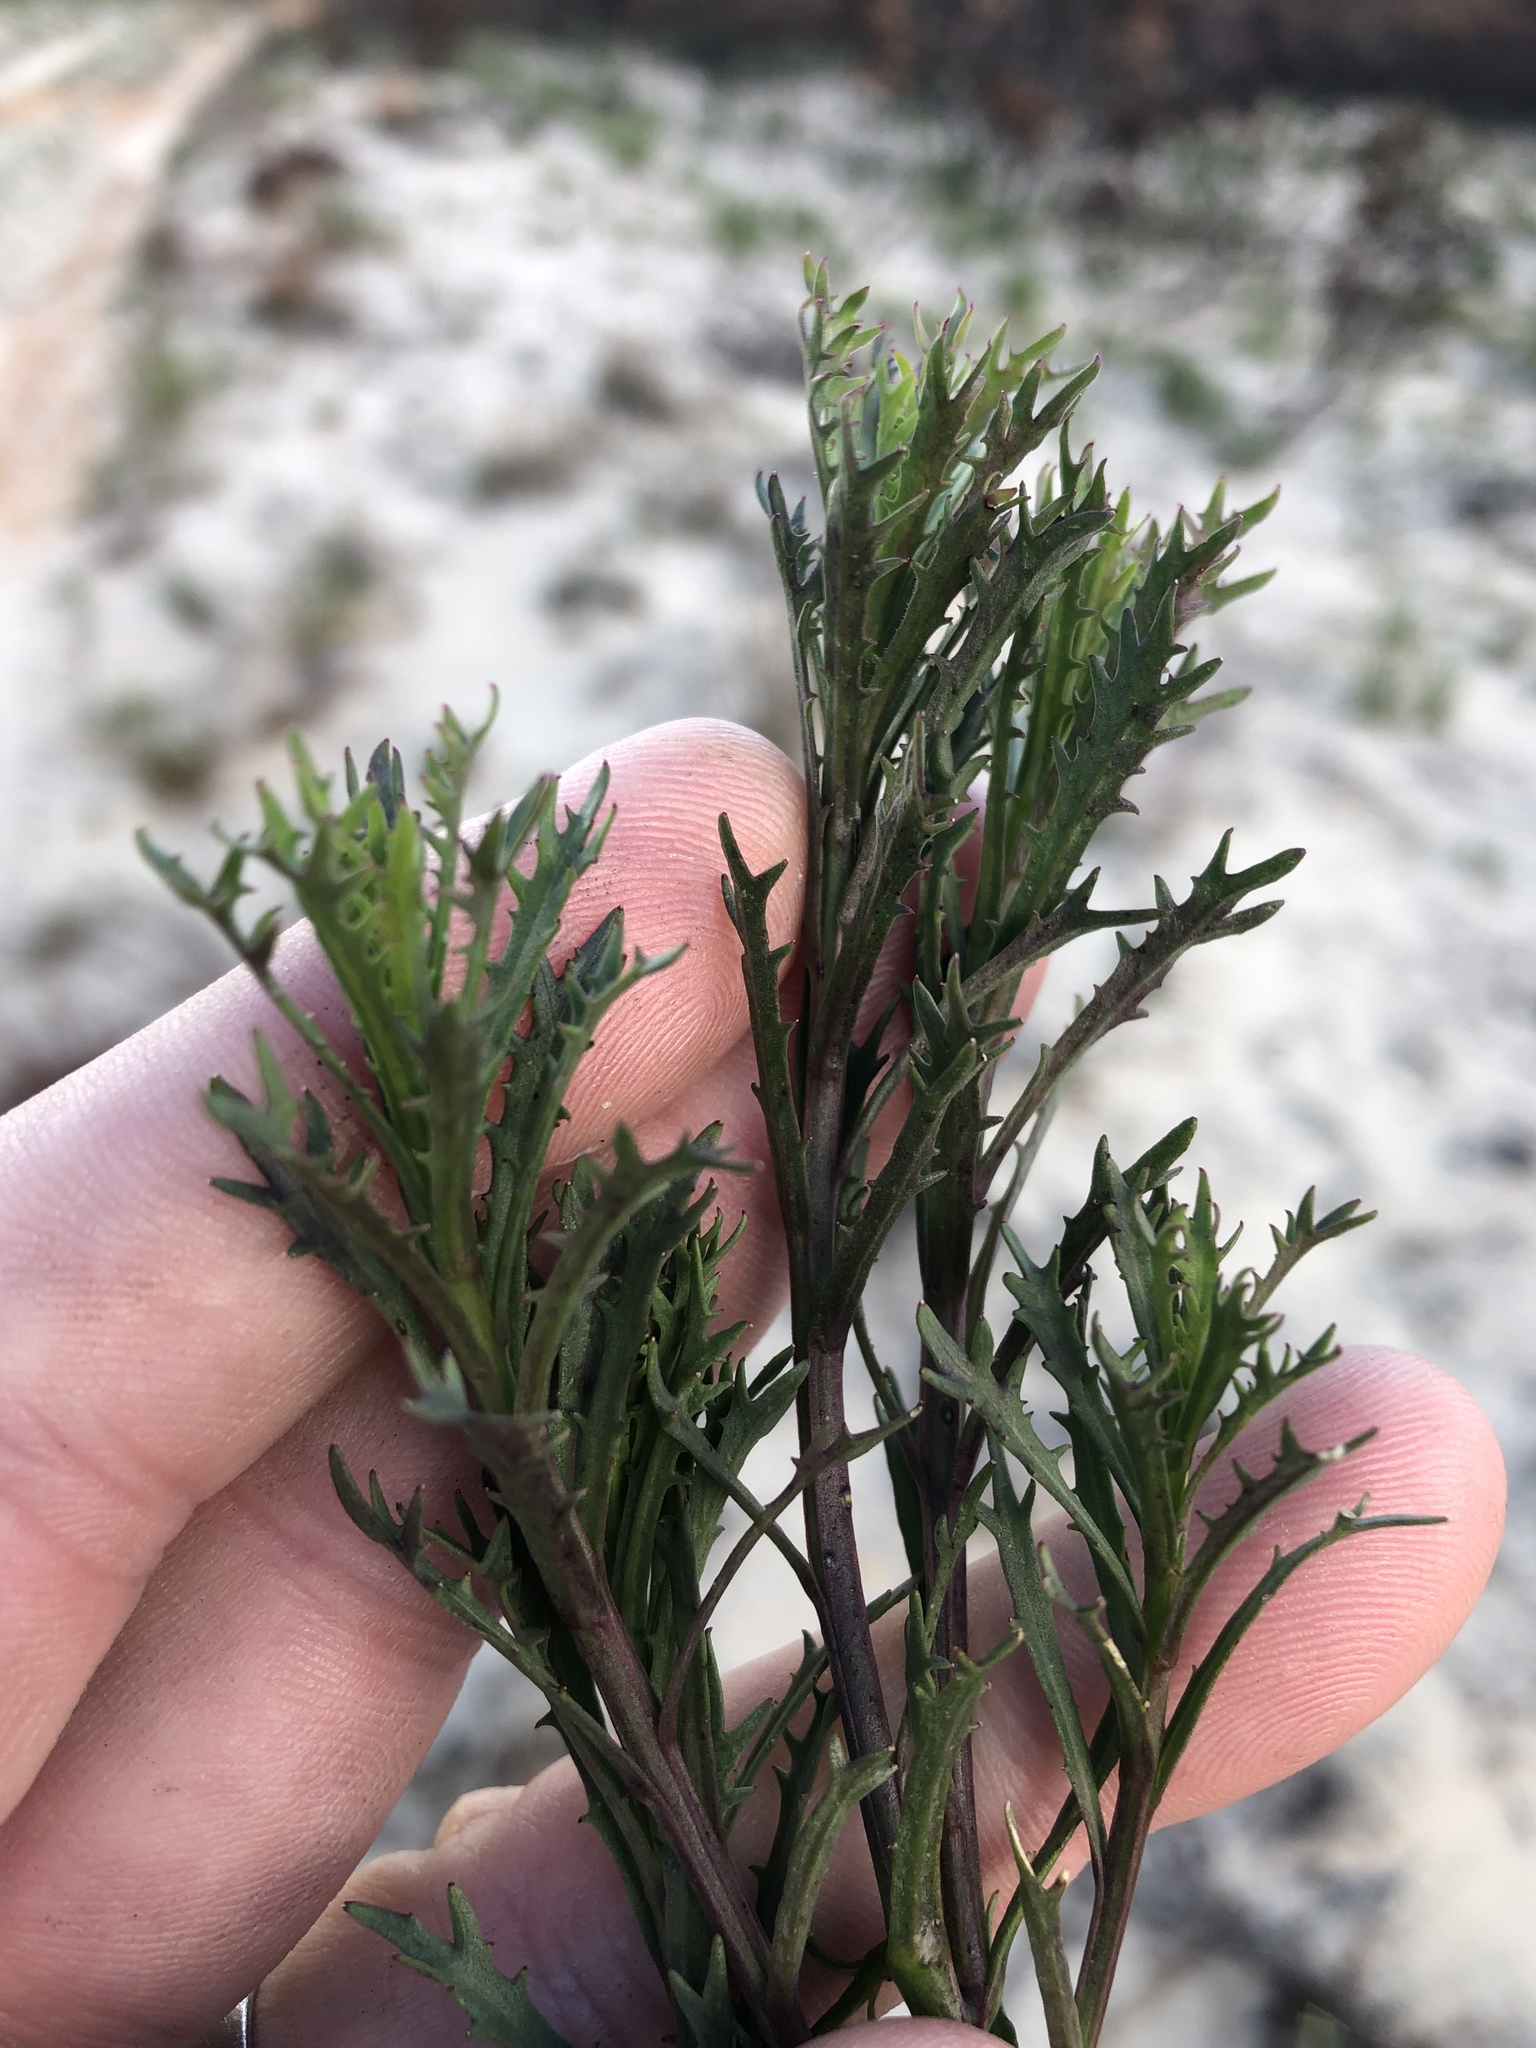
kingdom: Plantae
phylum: Tracheophyta
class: Magnoliopsida
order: Asterales
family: Campanulaceae
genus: Lobelia
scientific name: Lobelia comosa
